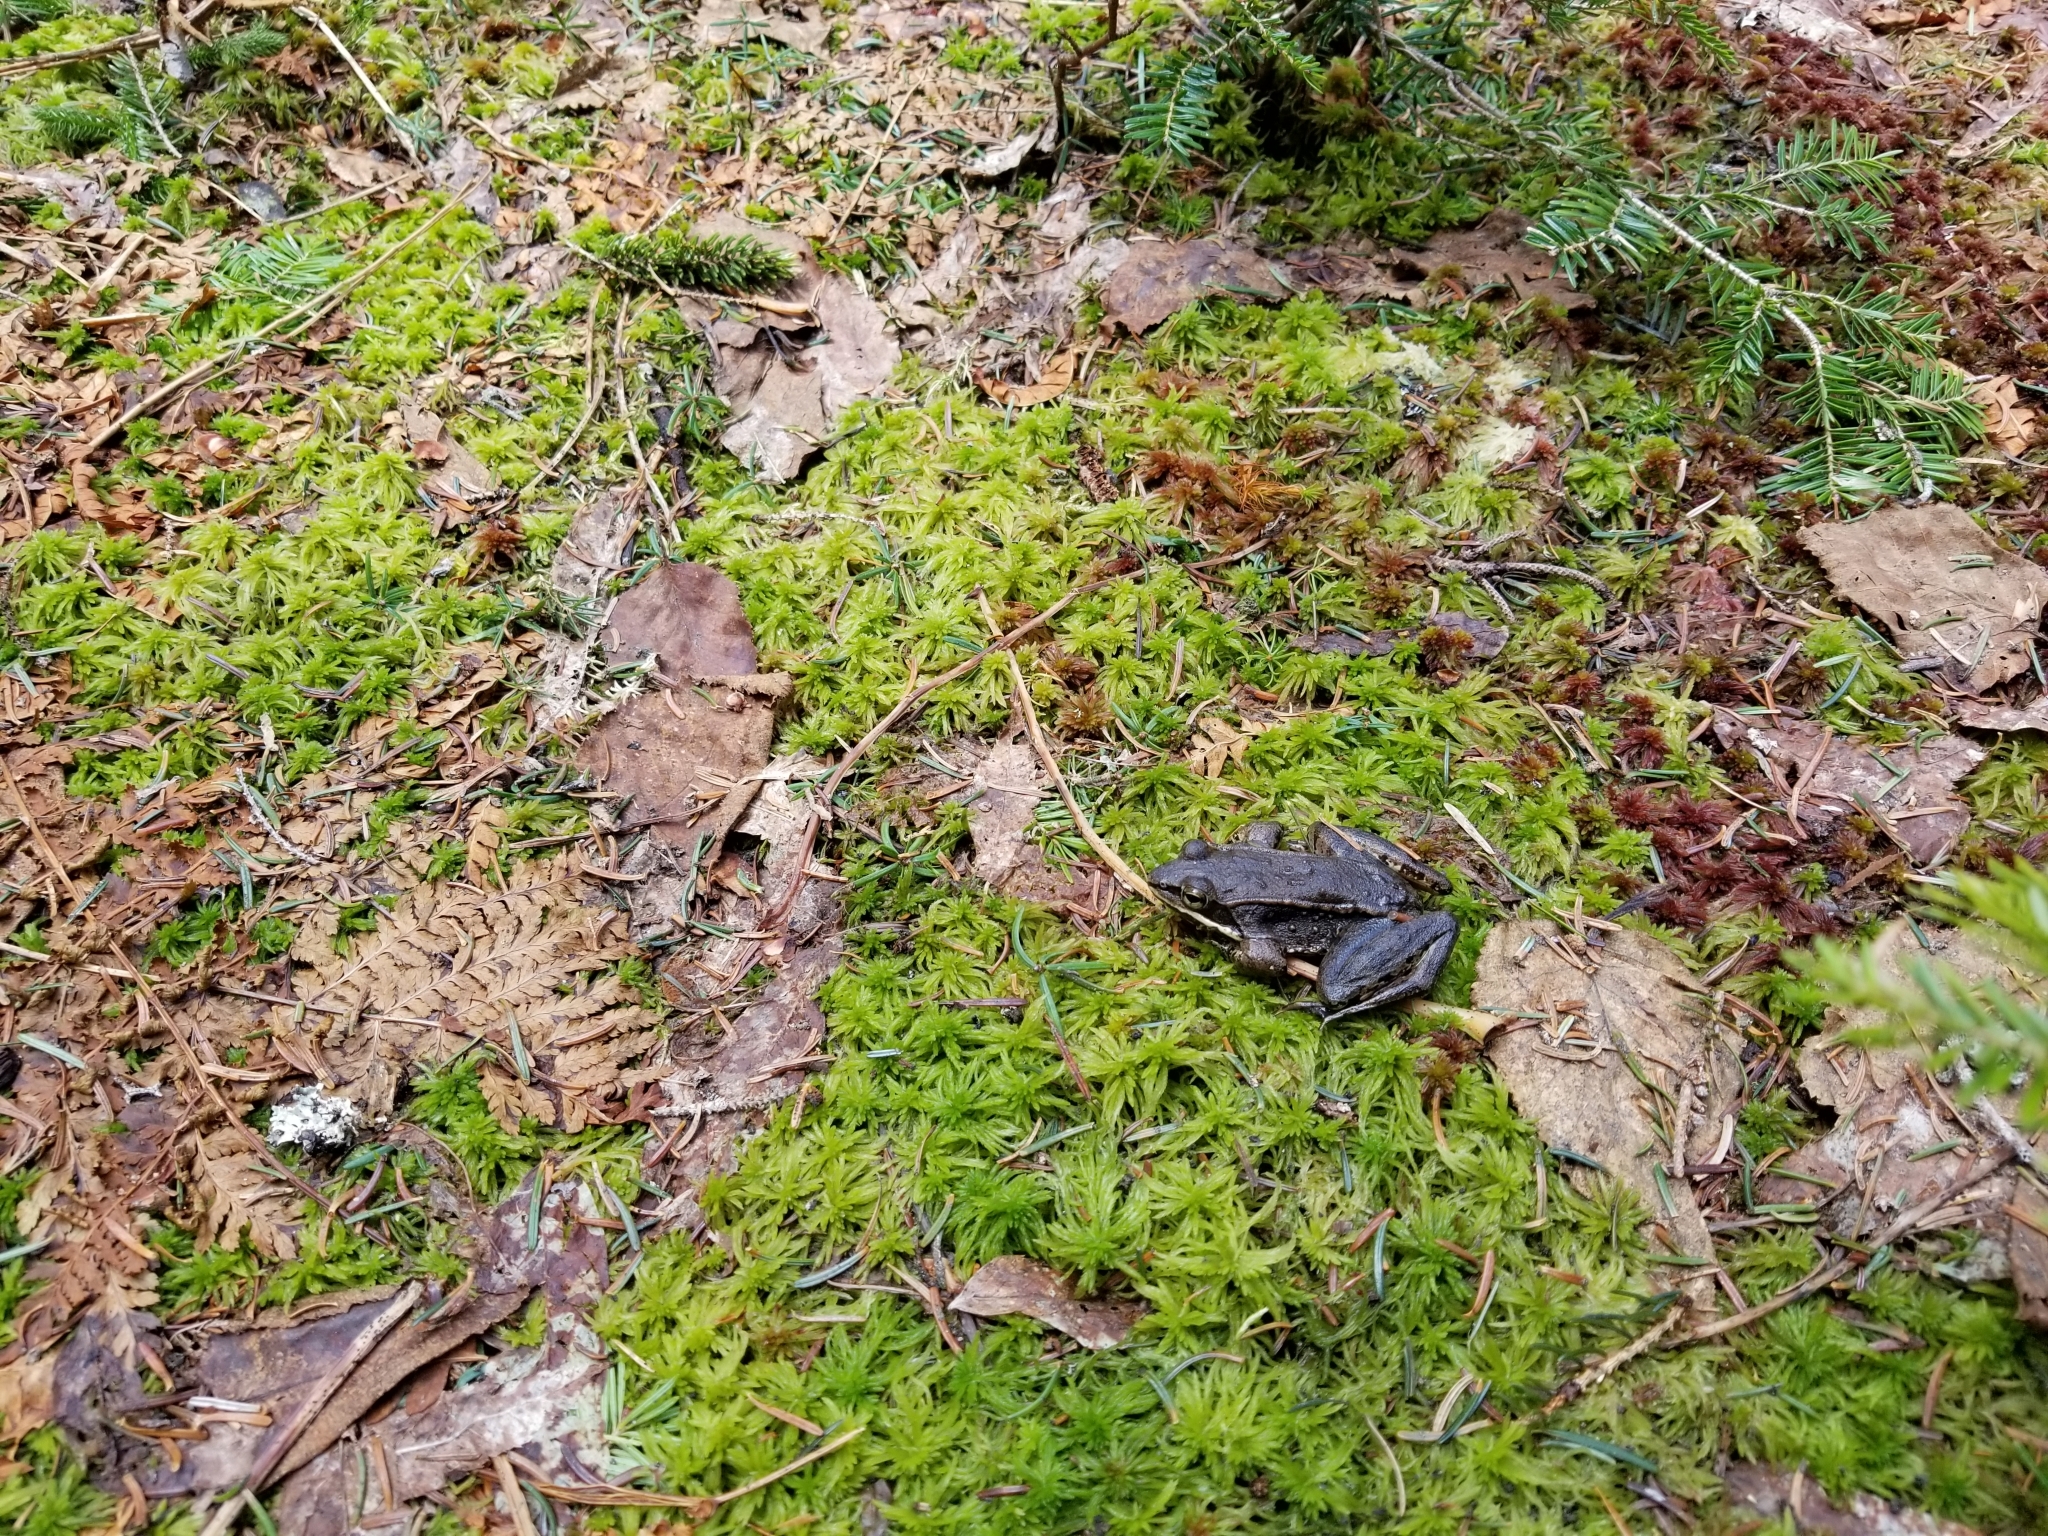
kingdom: Animalia
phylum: Chordata
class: Amphibia
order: Anura
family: Ranidae
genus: Lithobates
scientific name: Lithobates sylvaticus
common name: Wood frog
